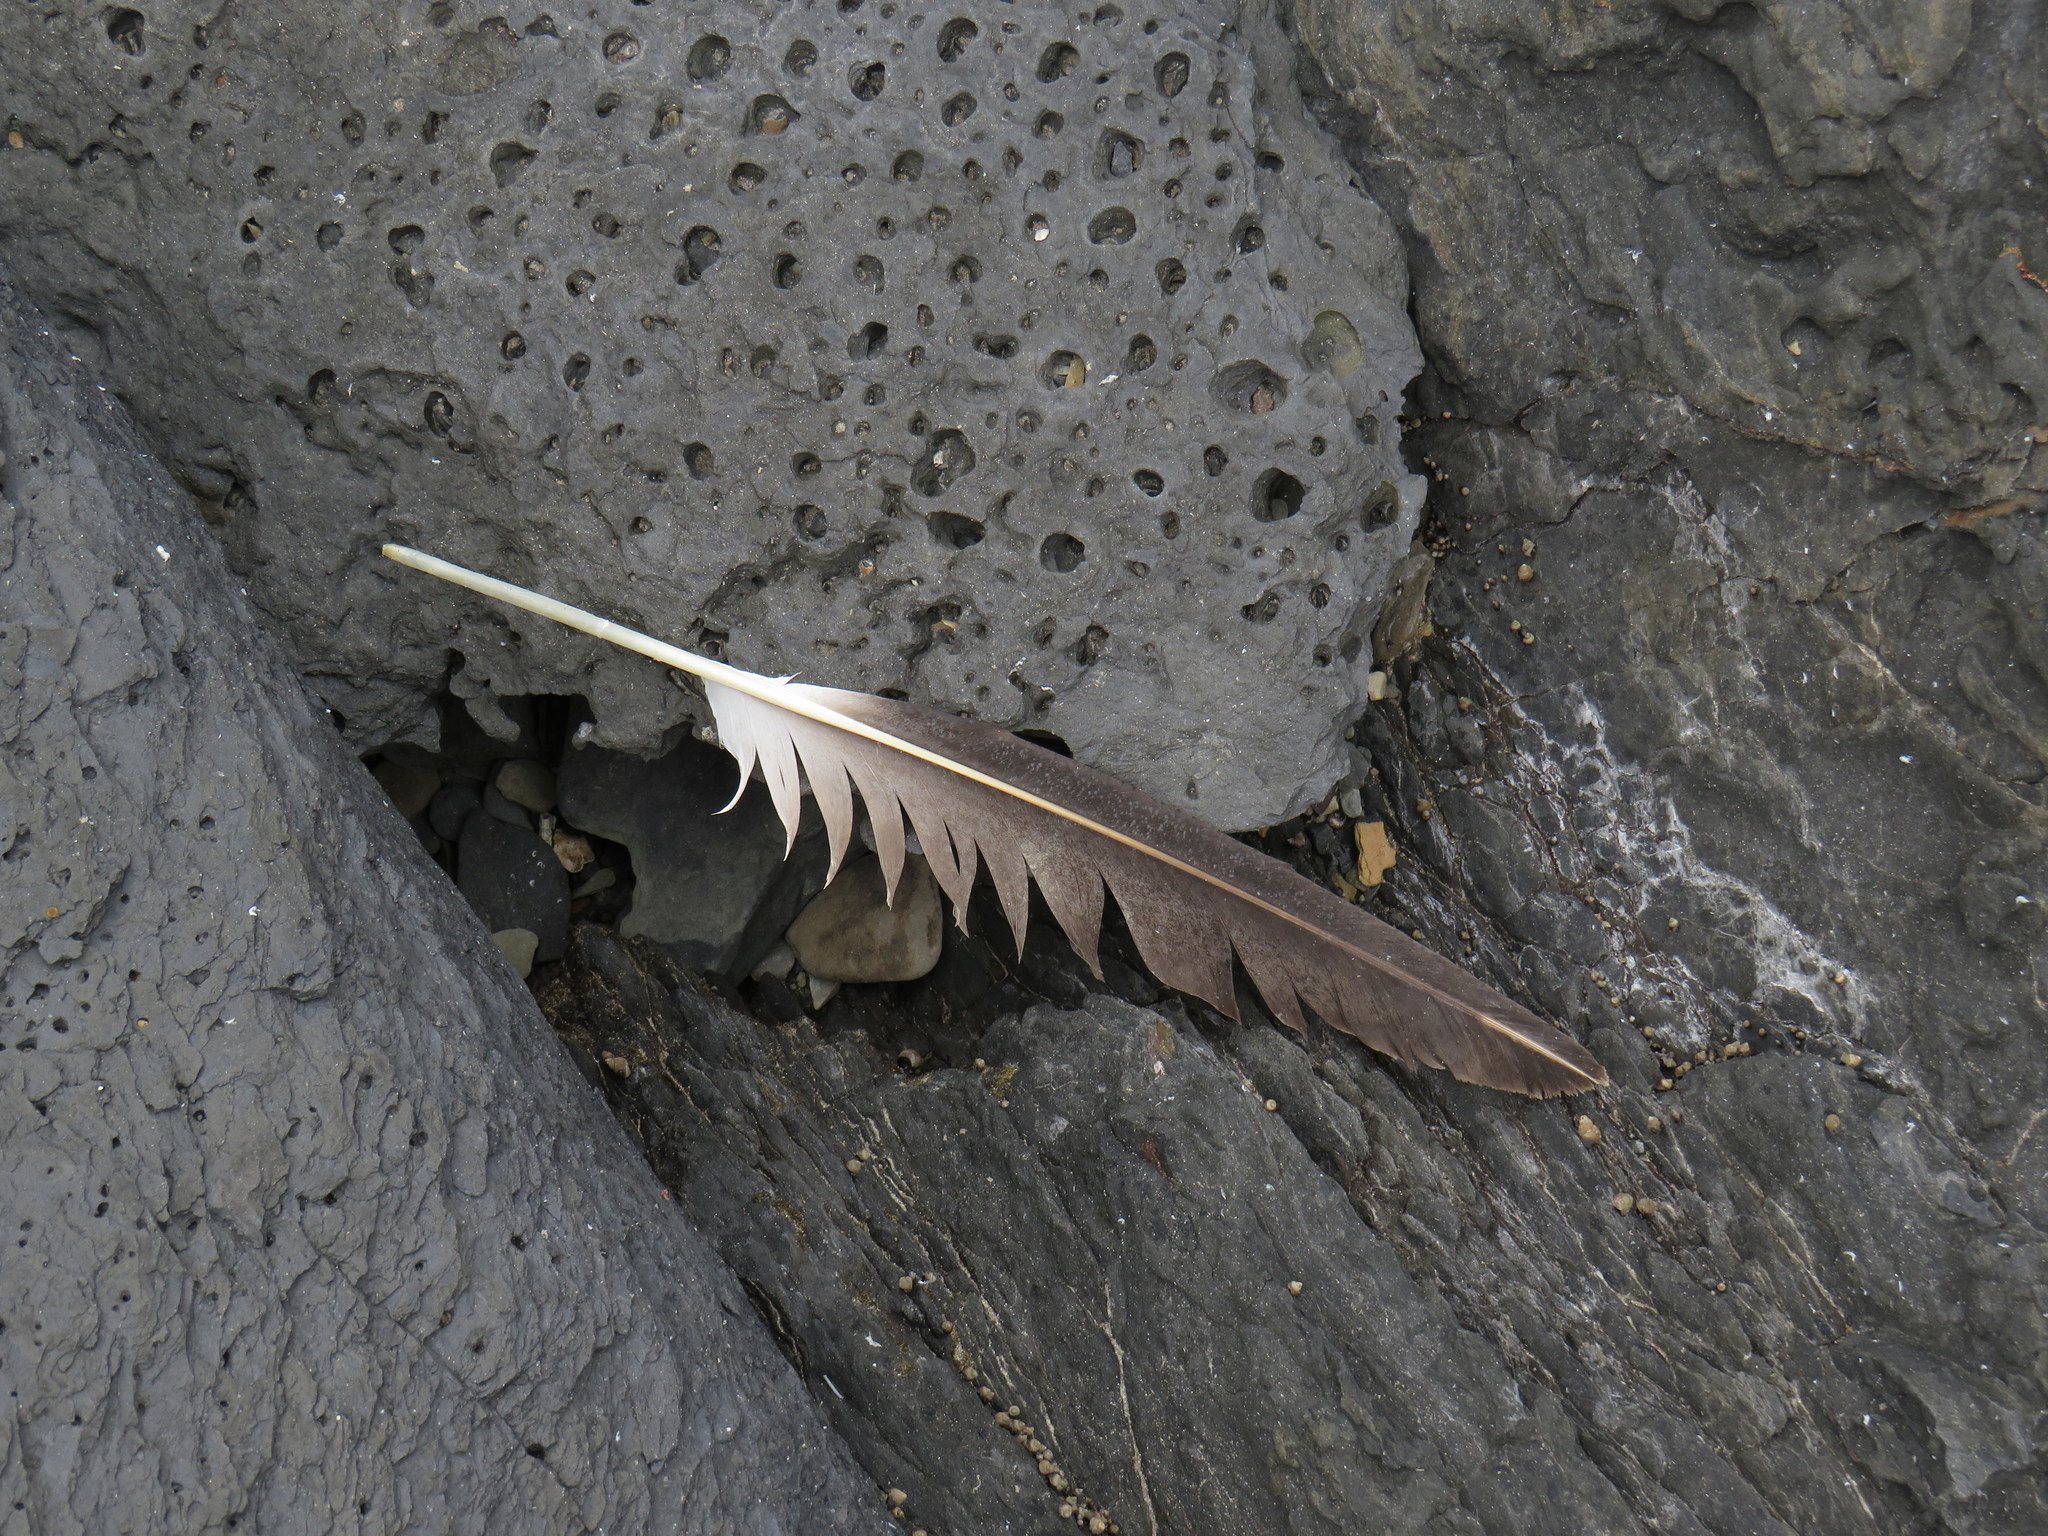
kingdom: Animalia
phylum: Chordata
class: Aves
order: Suliformes
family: Sulidae
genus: Morus
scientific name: Morus capensis
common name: Cape gannet
